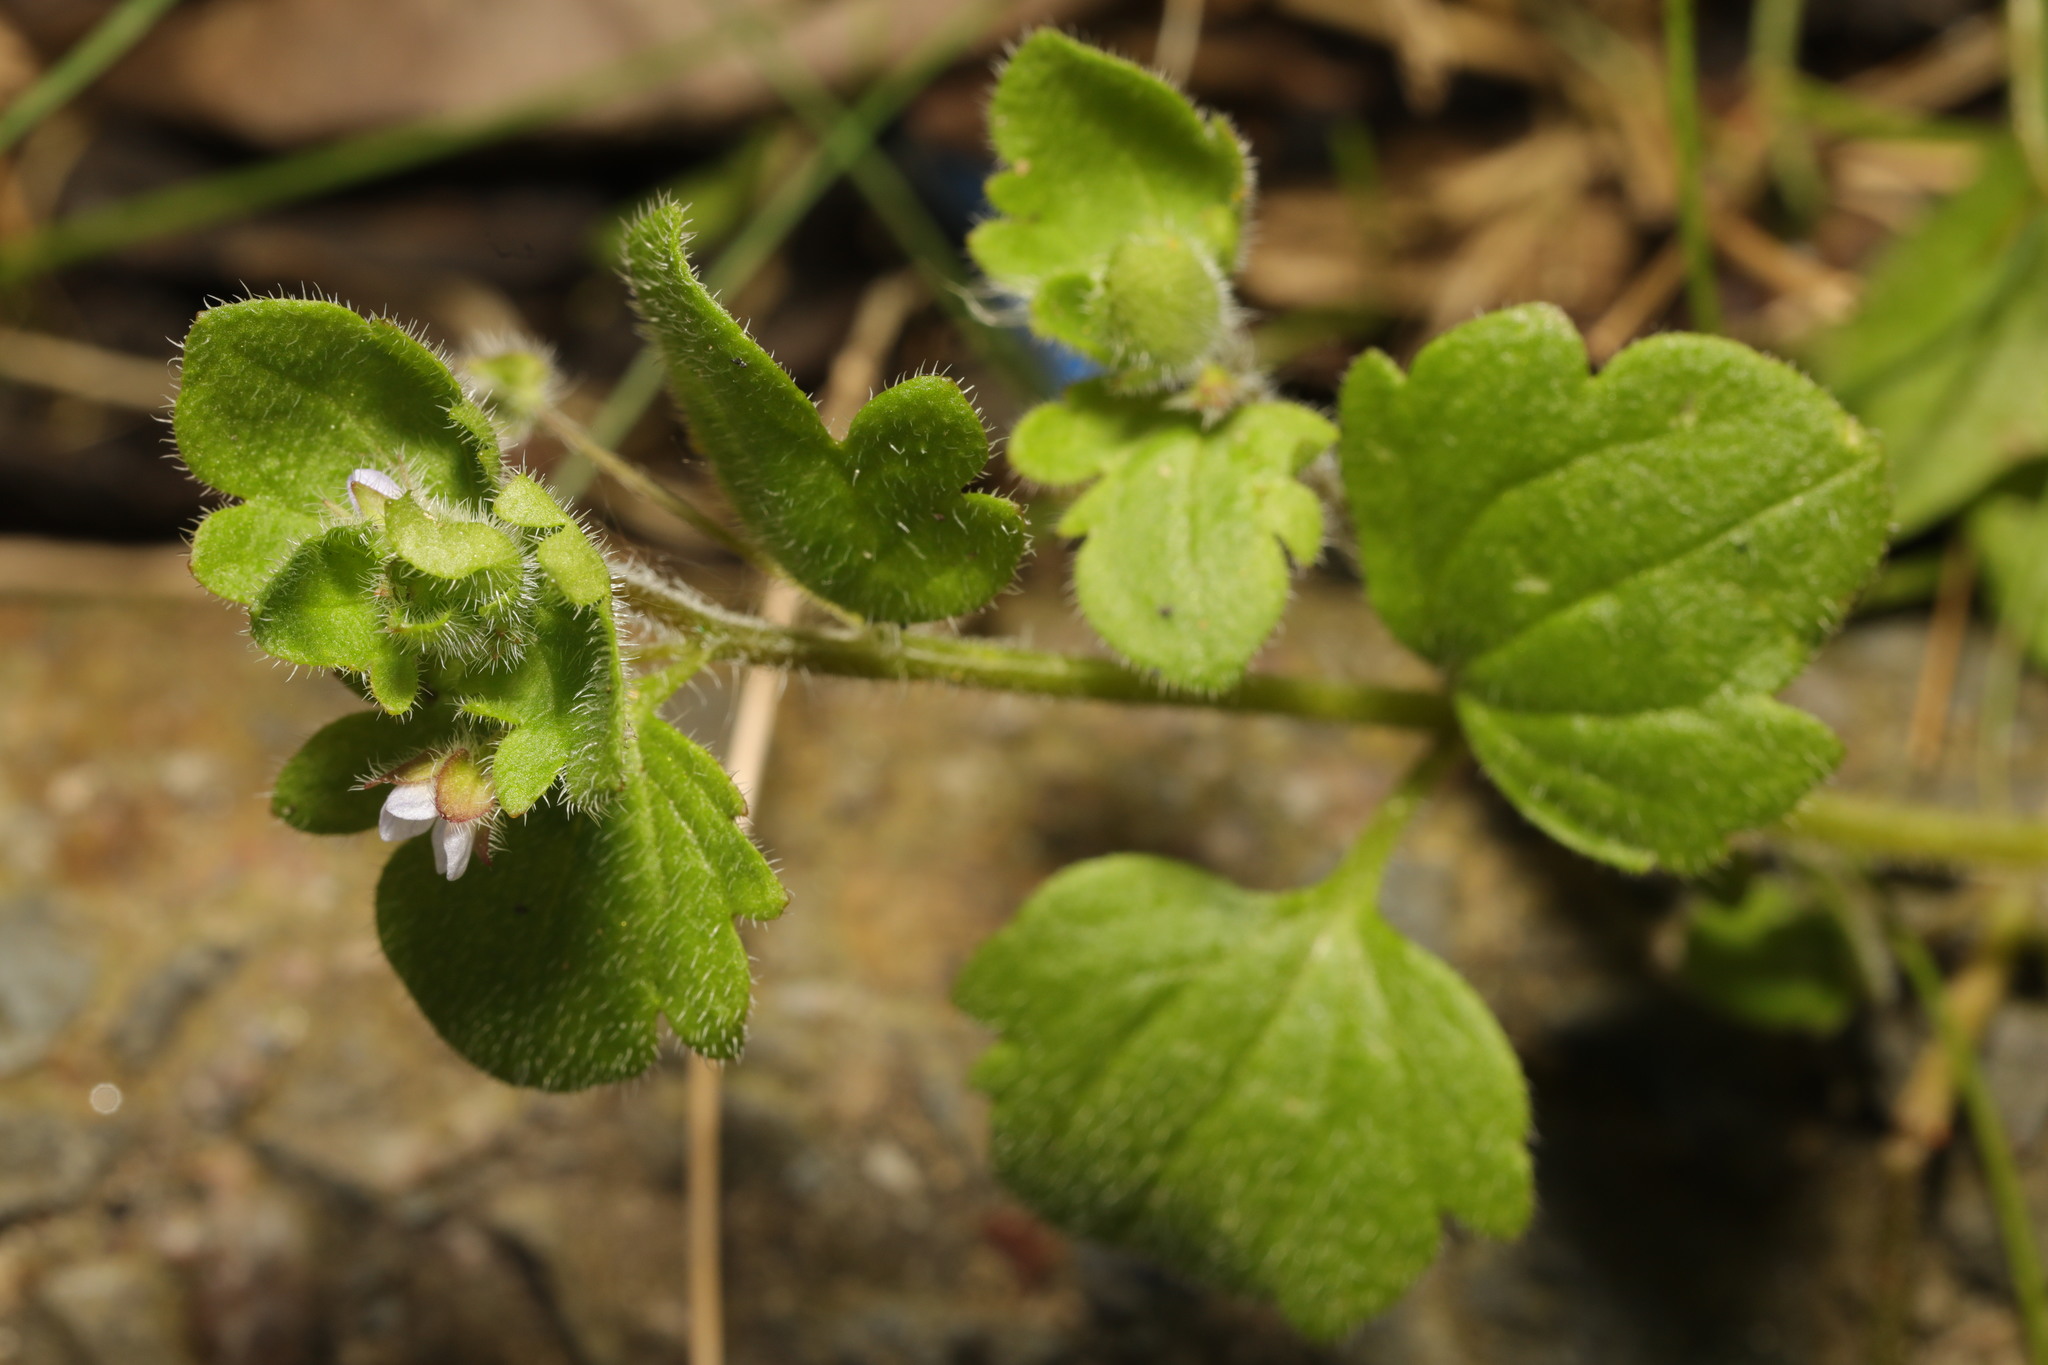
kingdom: Plantae
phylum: Tracheophyta
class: Magnoliopsida
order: Lamiales
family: Plantaginaceae
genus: Veronica
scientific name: Veronica sublobata
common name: False ivy-leaved speedwell
